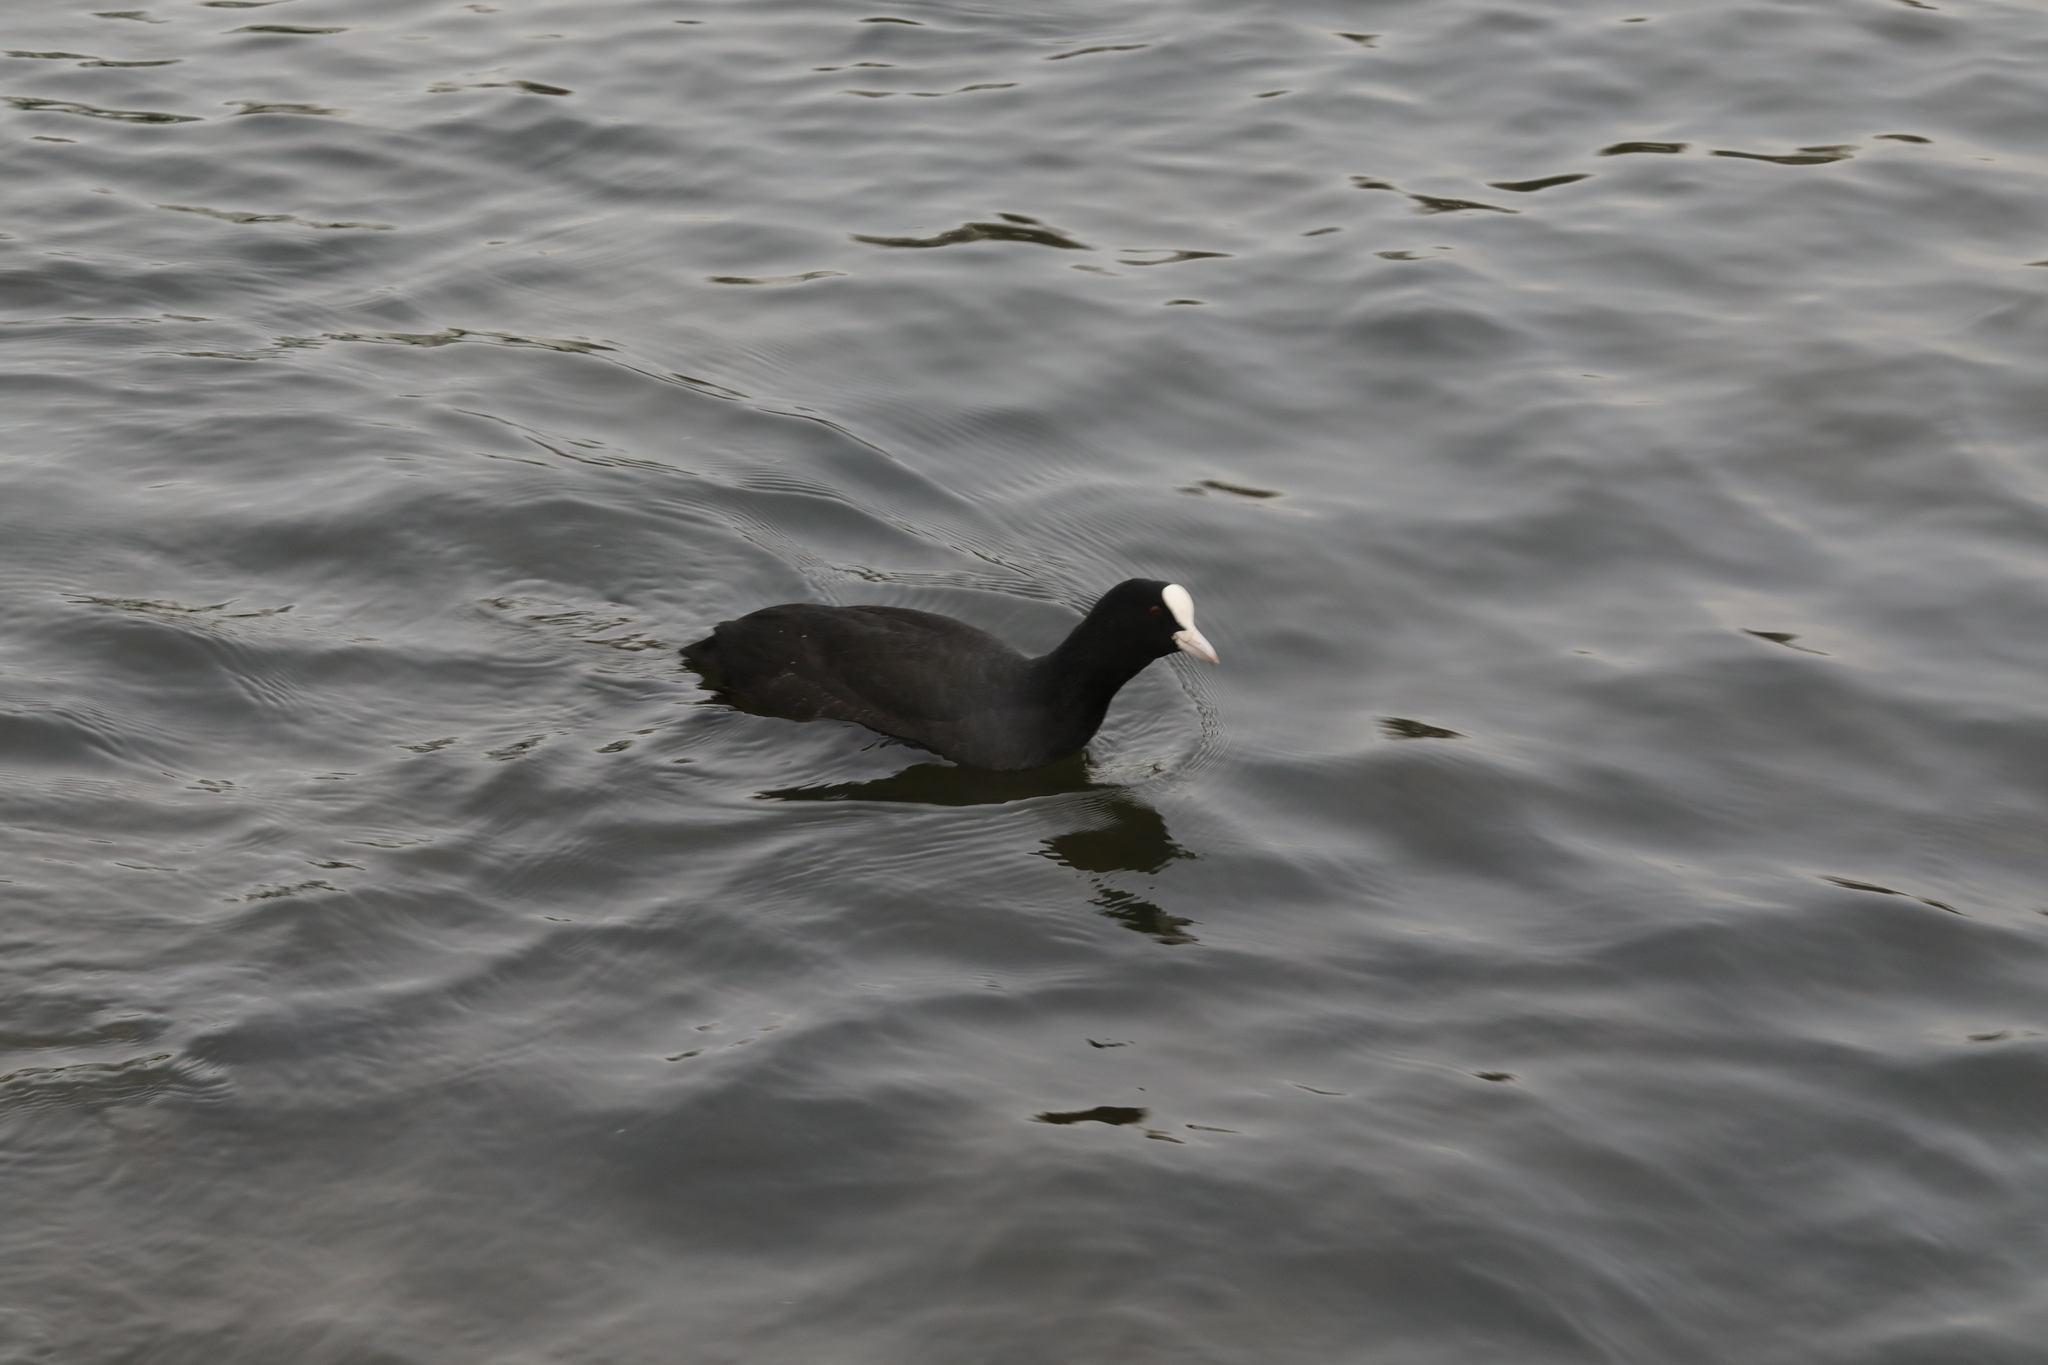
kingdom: Animalia
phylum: Chordata
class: Aves
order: Gruiformes
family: Rallidae
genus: Fulica
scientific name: Fulica atra
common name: Eurasian coot
